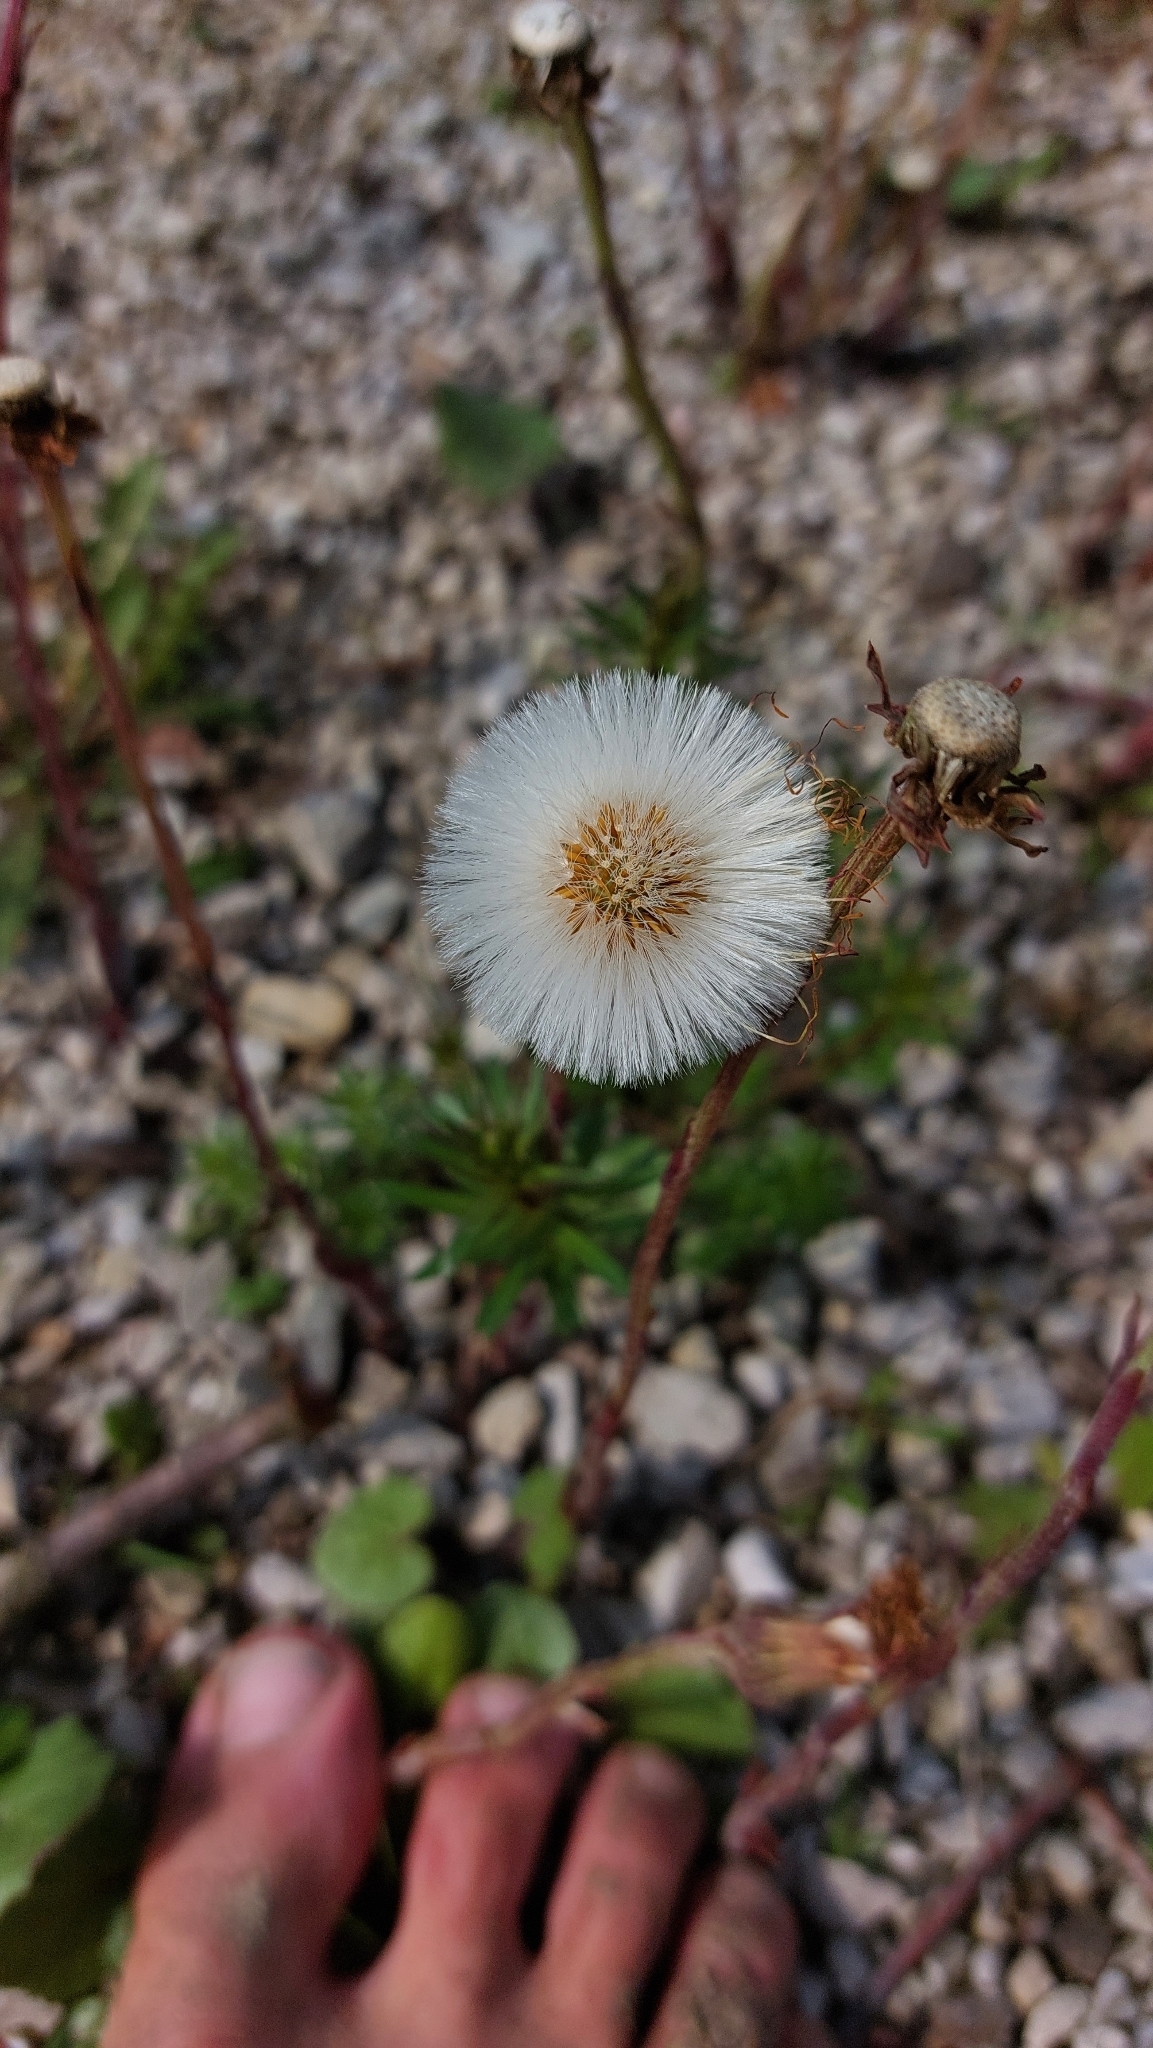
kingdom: Plantae
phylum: Tracheophyta
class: Magnoliopsida
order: Asterales
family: Asteraceae
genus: Tussilago
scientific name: Tussilago farfara
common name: Coltsfoot
